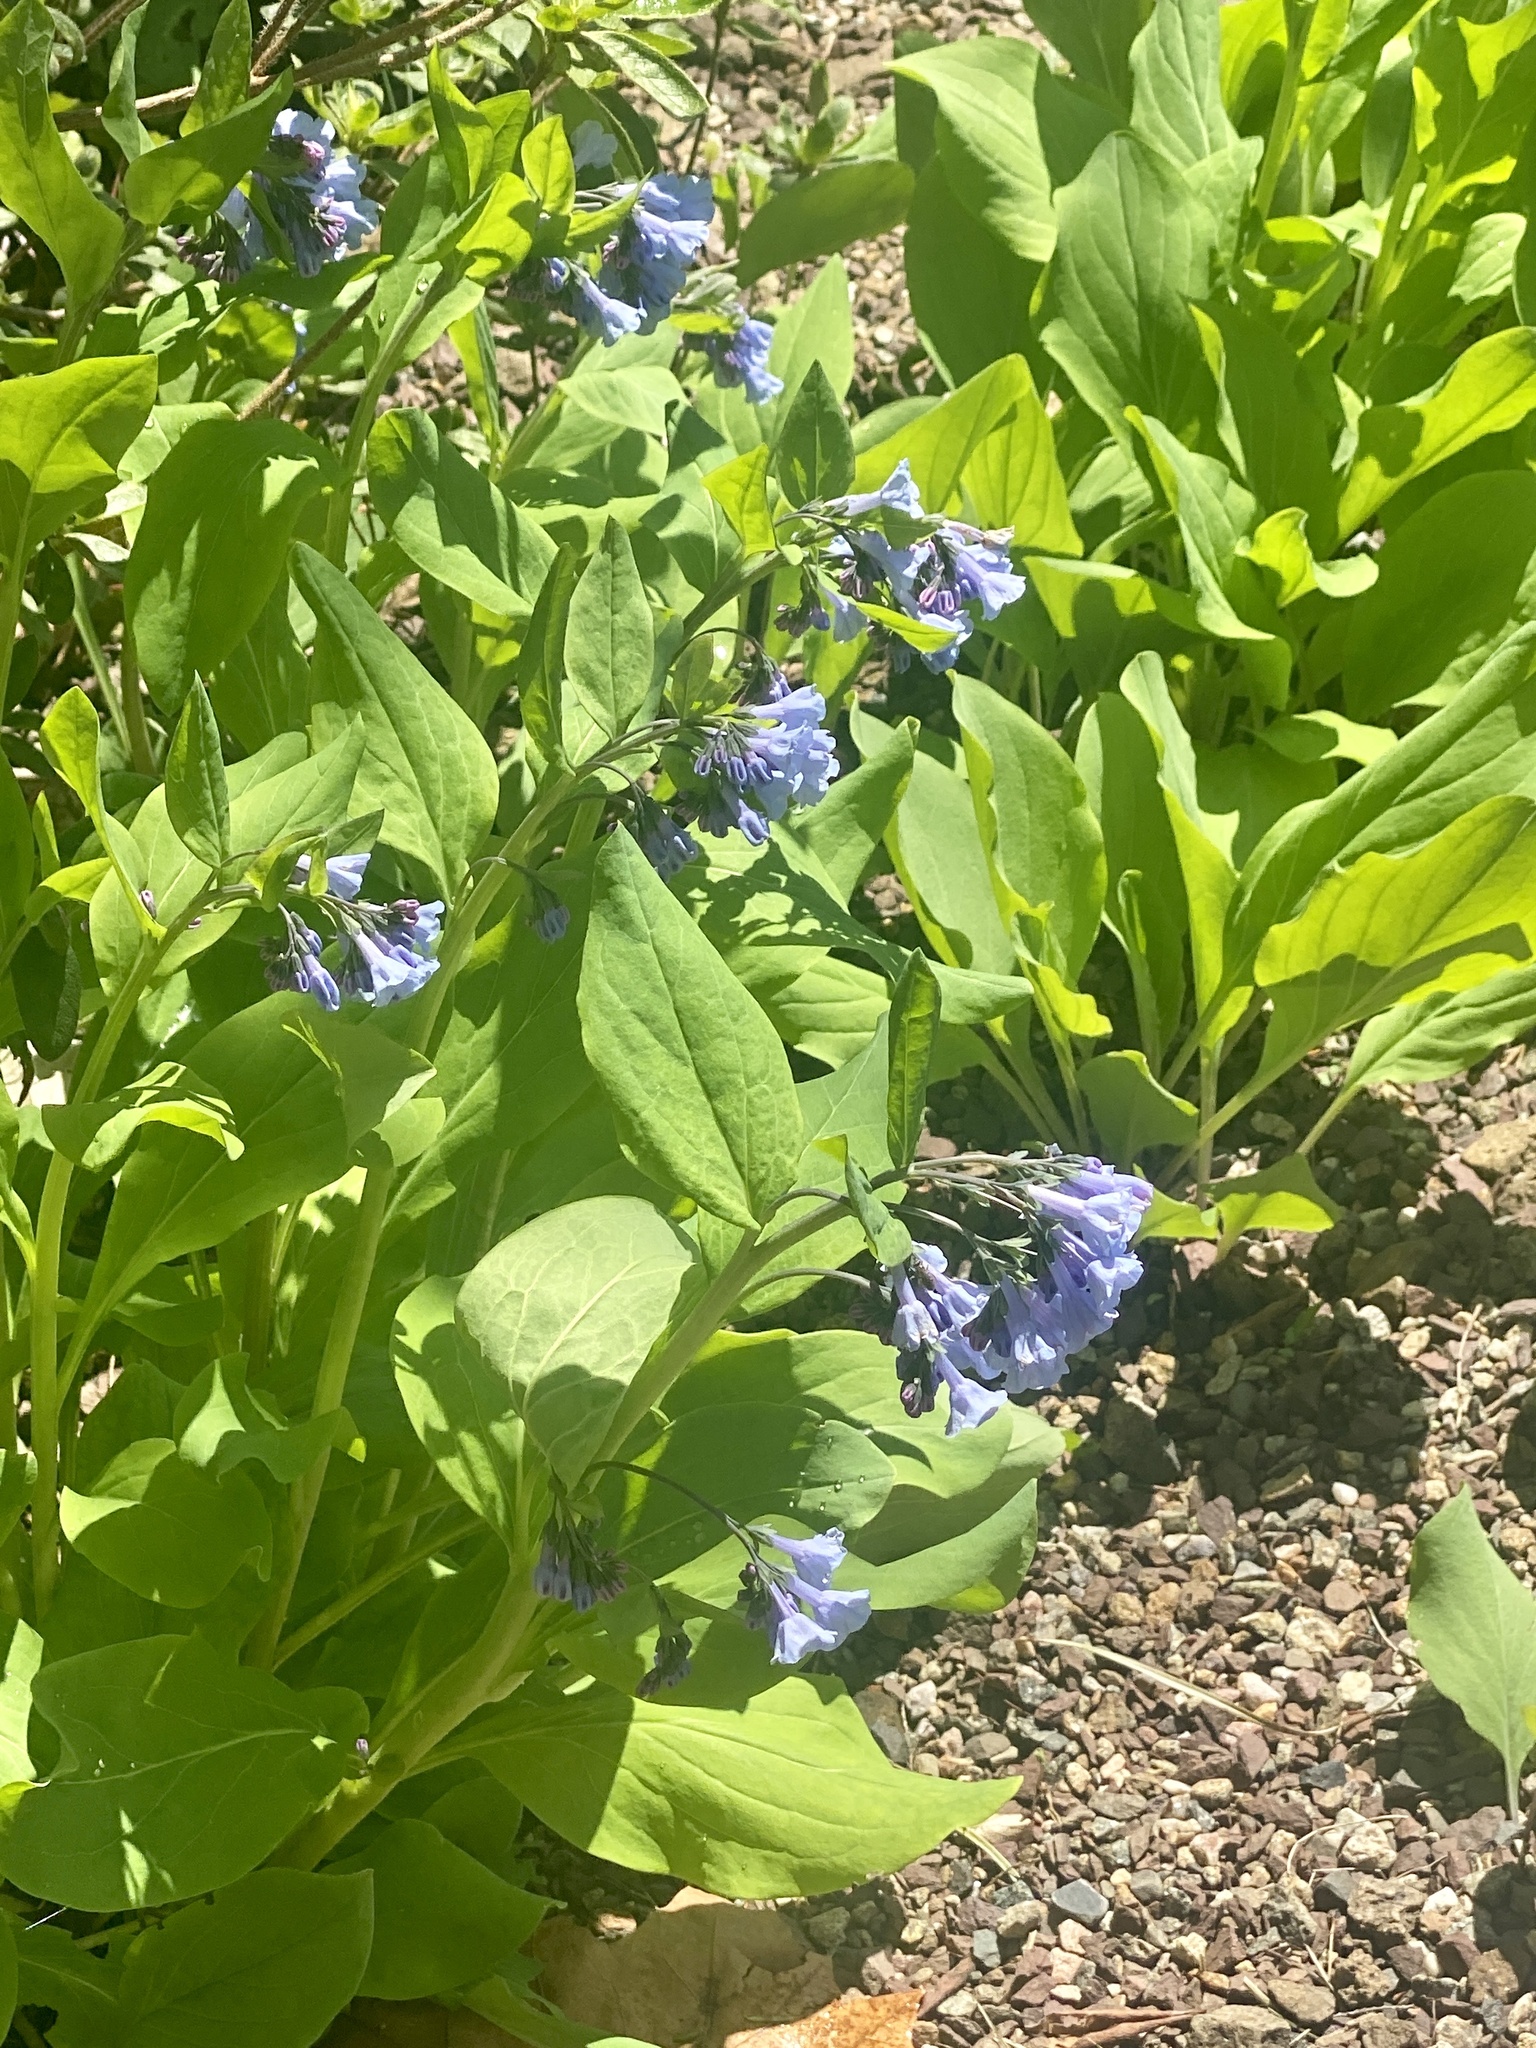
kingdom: Plantae
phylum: Tracheophyta
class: Magnoliopsida
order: Boraginales
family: Boraginaceae
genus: Mertensia
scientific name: Mertensia virginica
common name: Virginia bluebells
